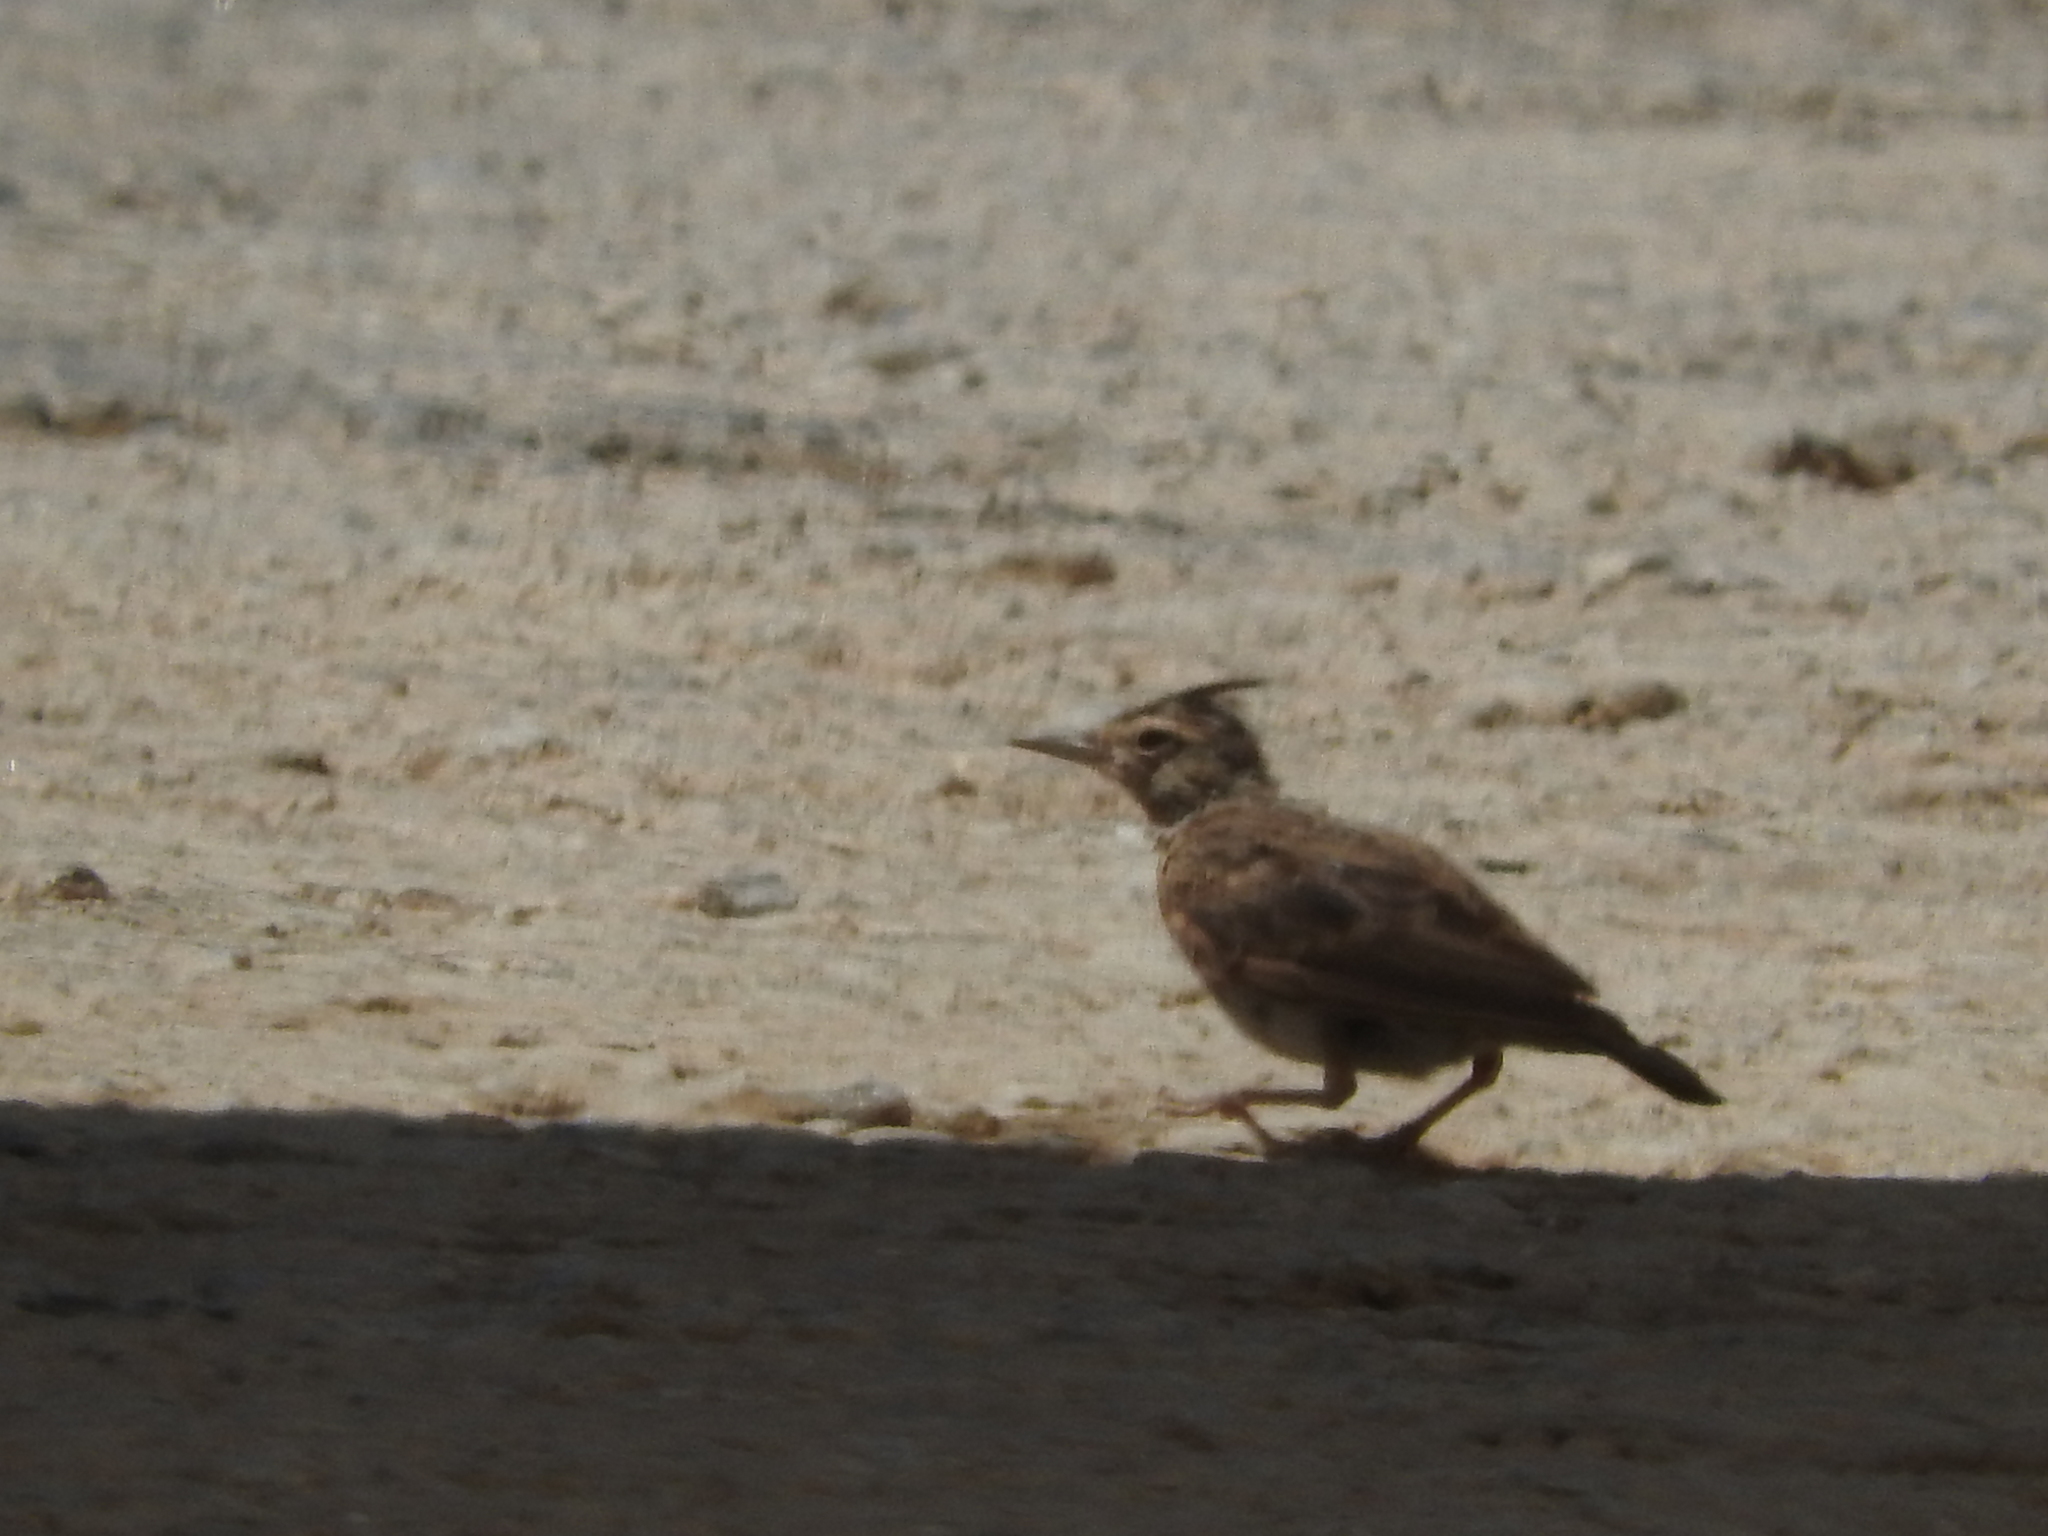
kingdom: Animalia
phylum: Chordata
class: Aves
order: Passeriformes
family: Alaudidae
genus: Galerida
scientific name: Galerida cristata
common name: Crested lark
